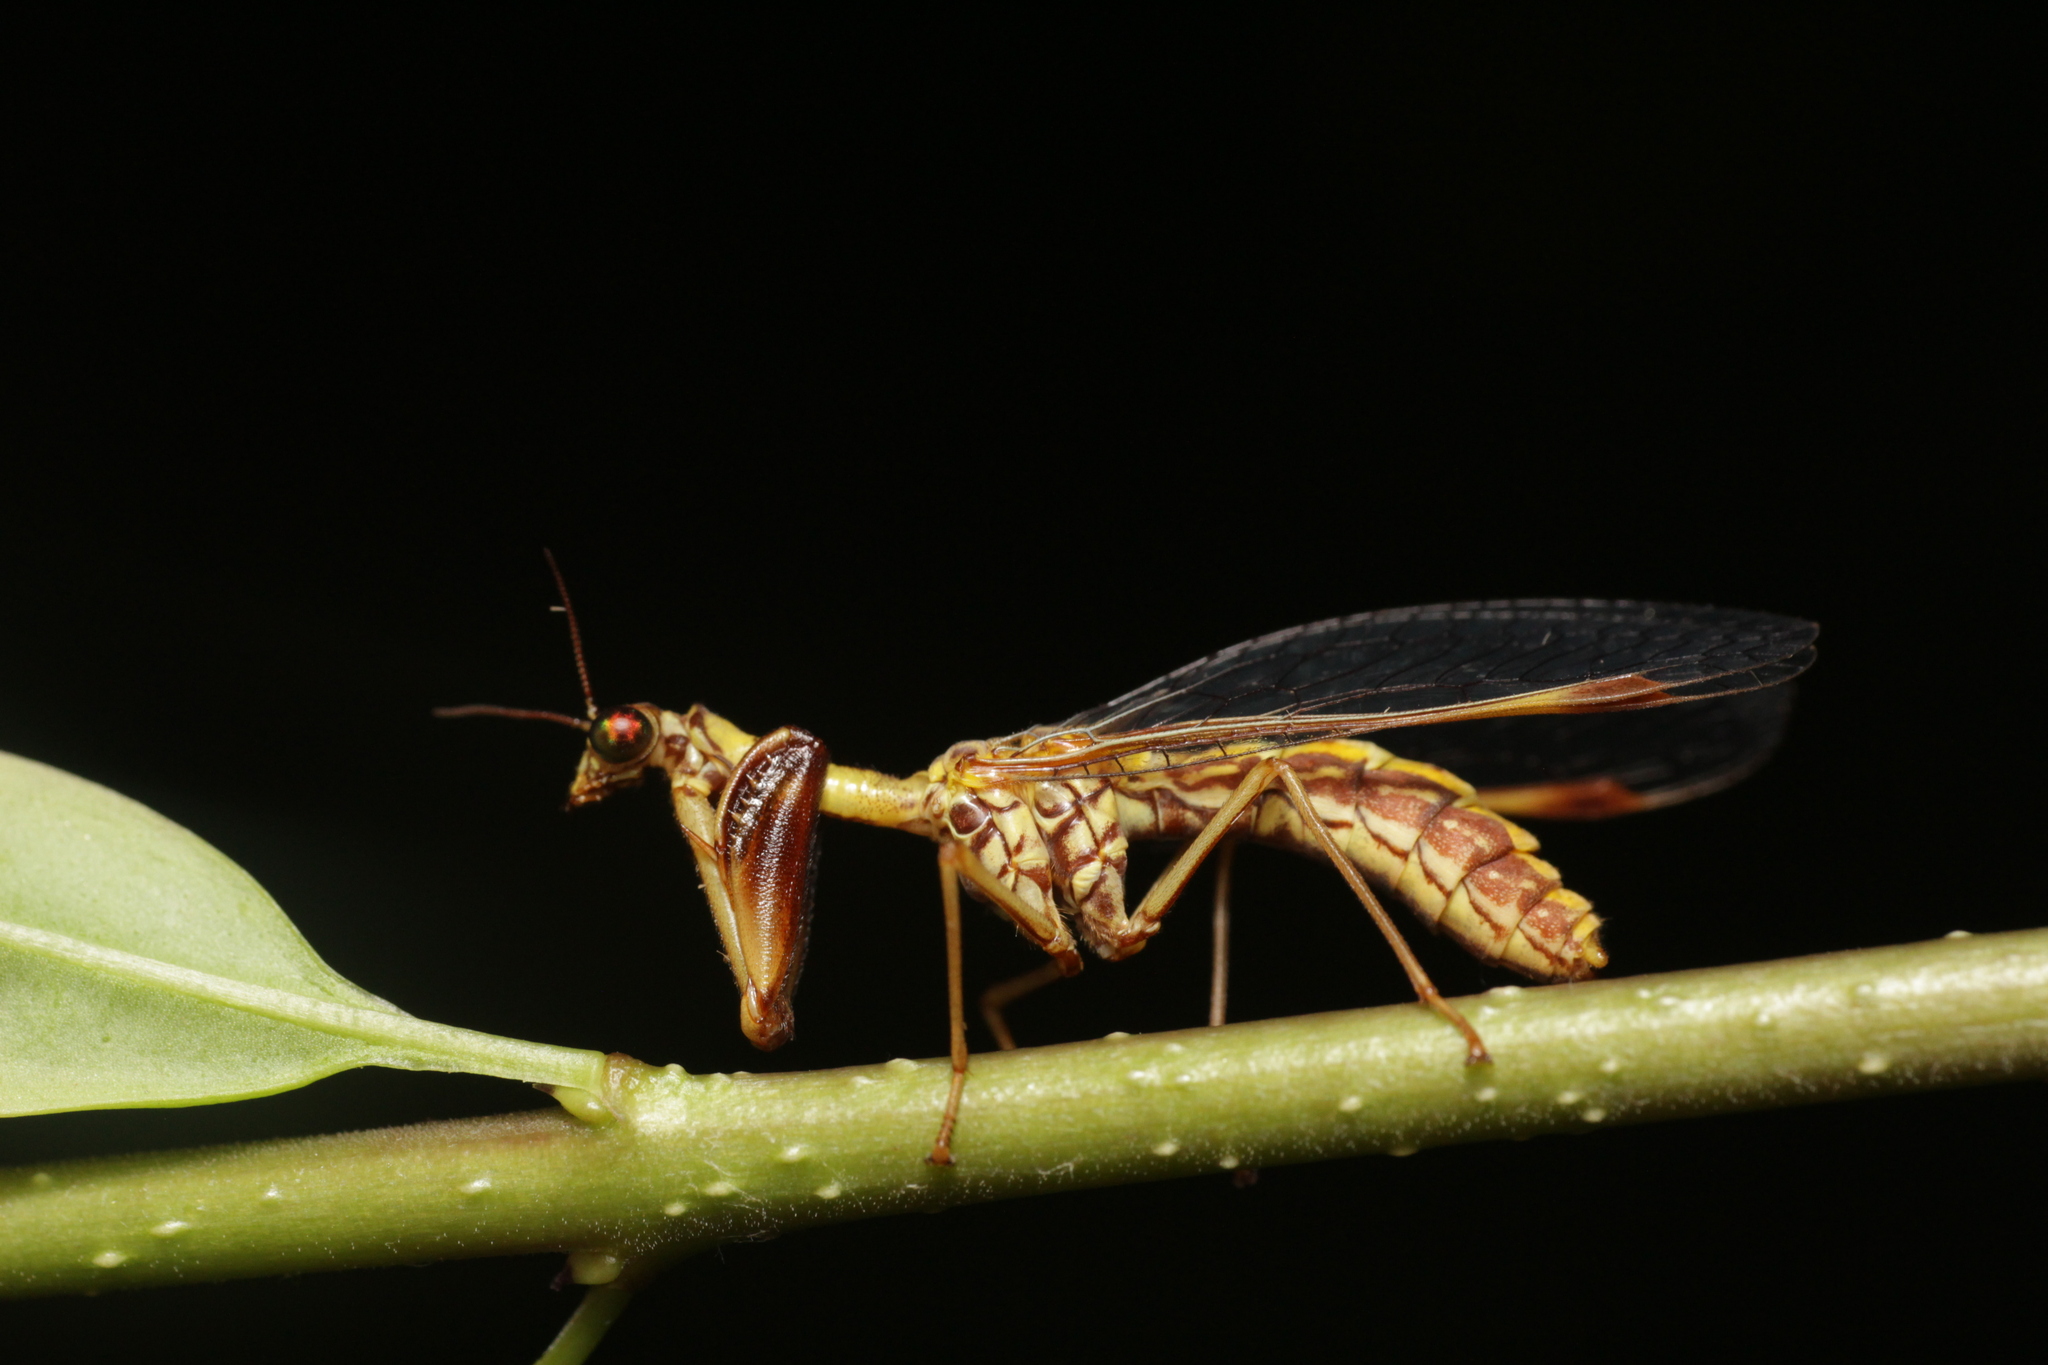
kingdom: Animalia
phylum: Arthropoda
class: Insecta
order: Neuroptera
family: Mantispidae
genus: Mantispa
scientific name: Mantispa styriaca
